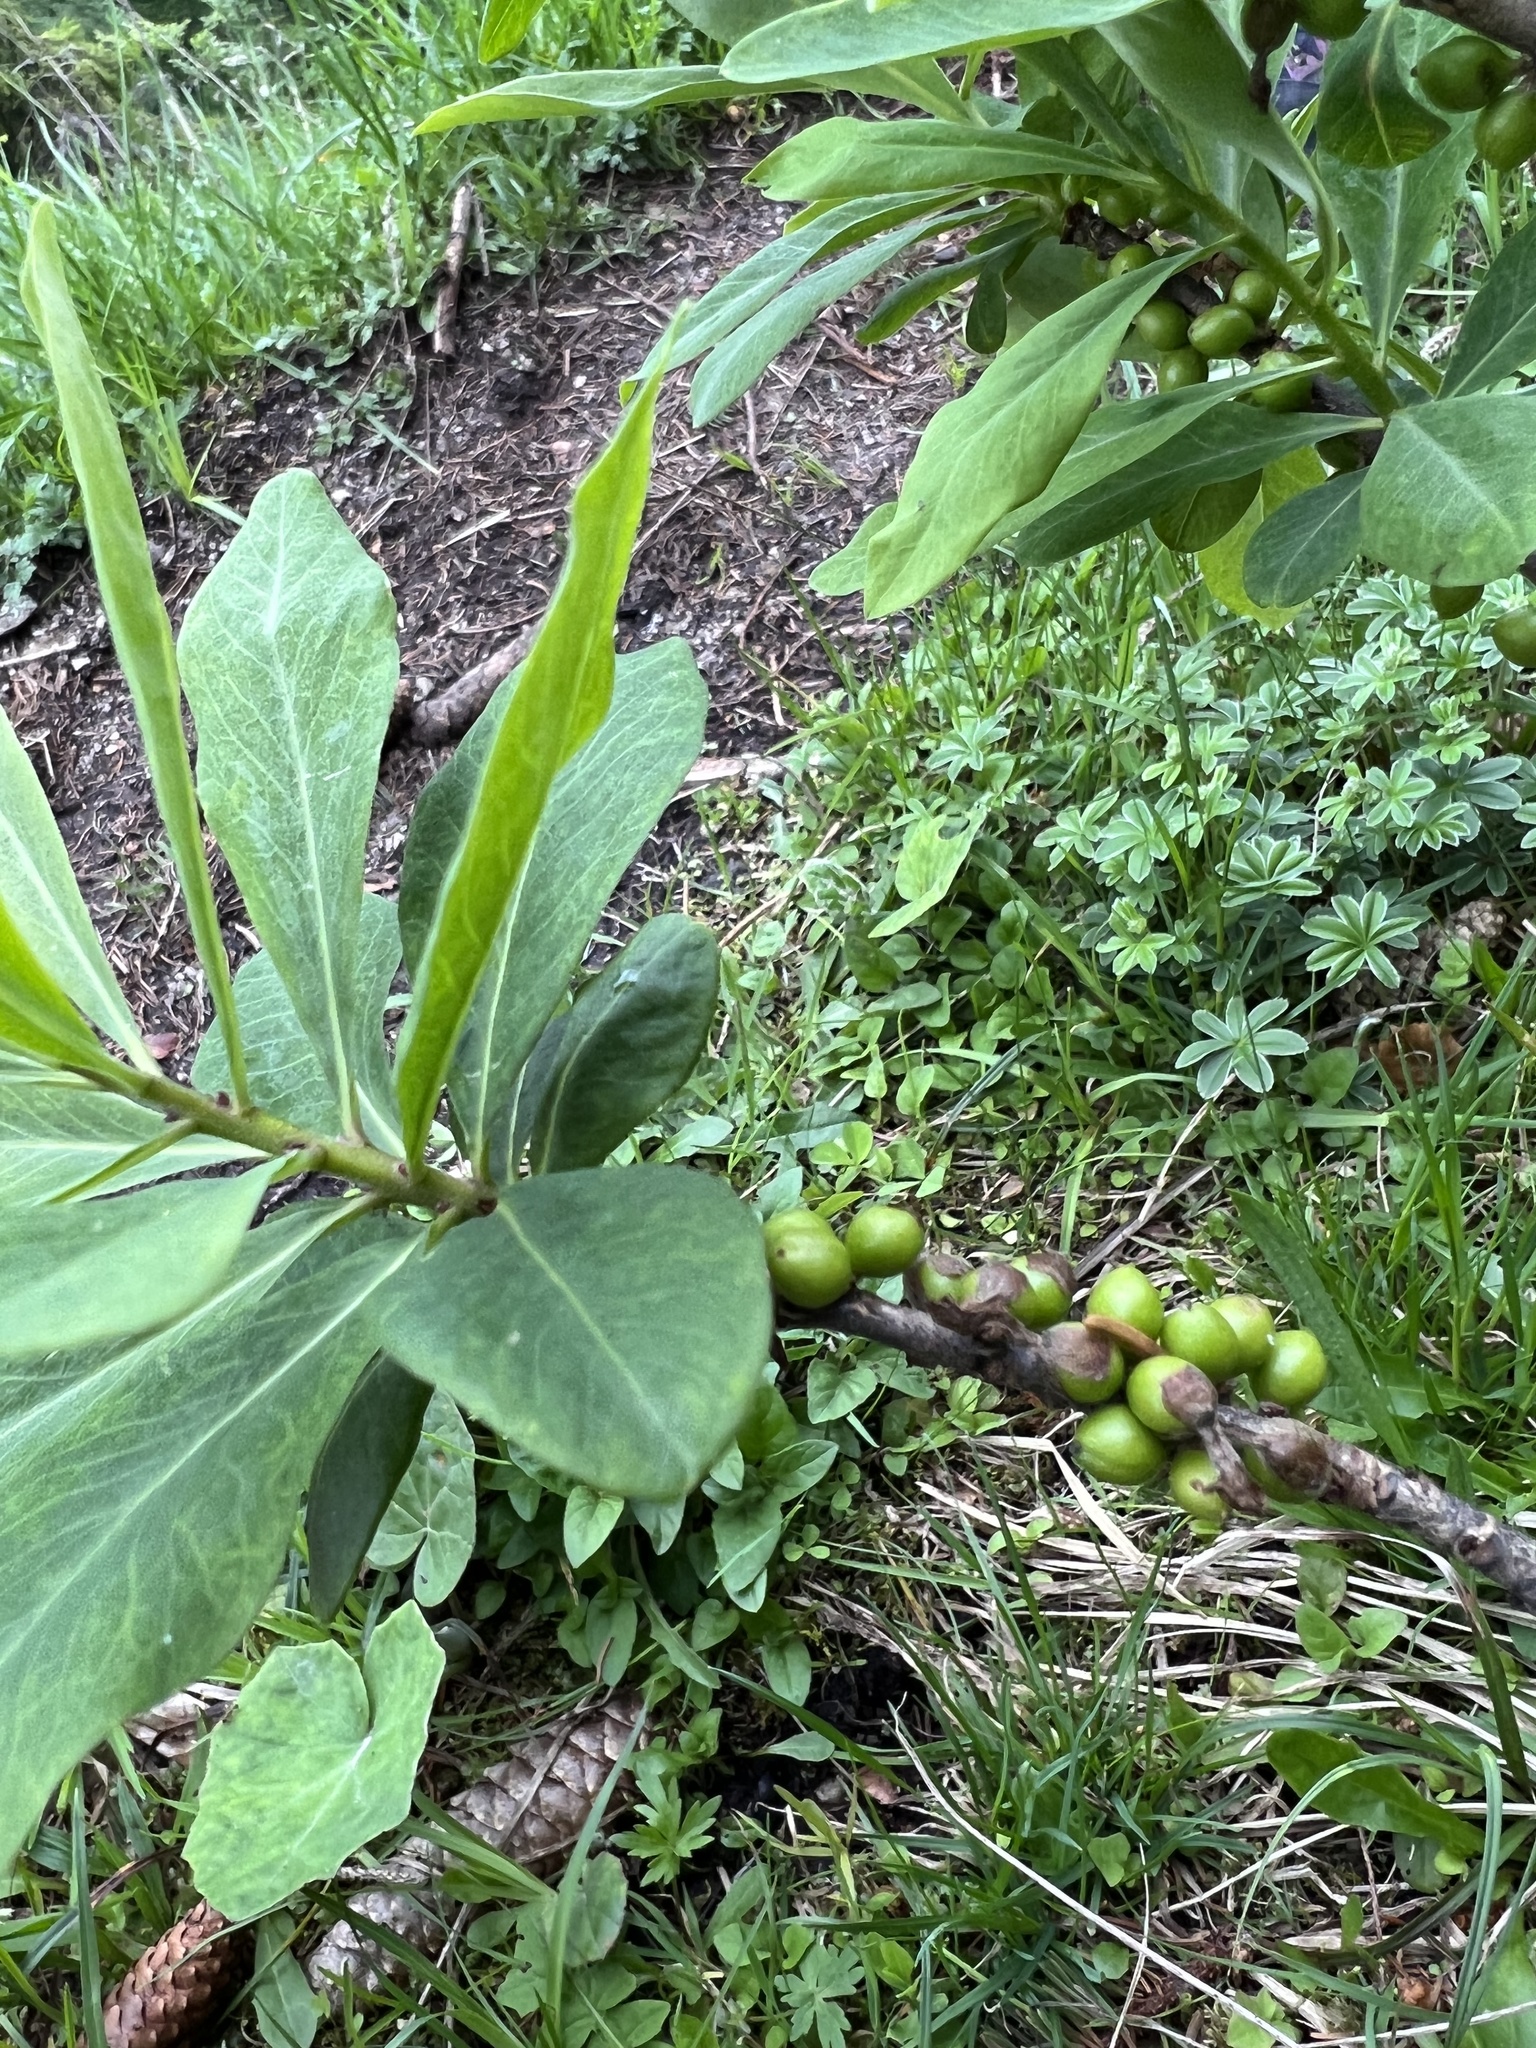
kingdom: Plantae
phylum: Tracheophyta
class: Magnoliopsida
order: Malvales
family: Thymelaeaceae
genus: Daphne
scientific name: Daphne mezereum
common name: Mezereon
